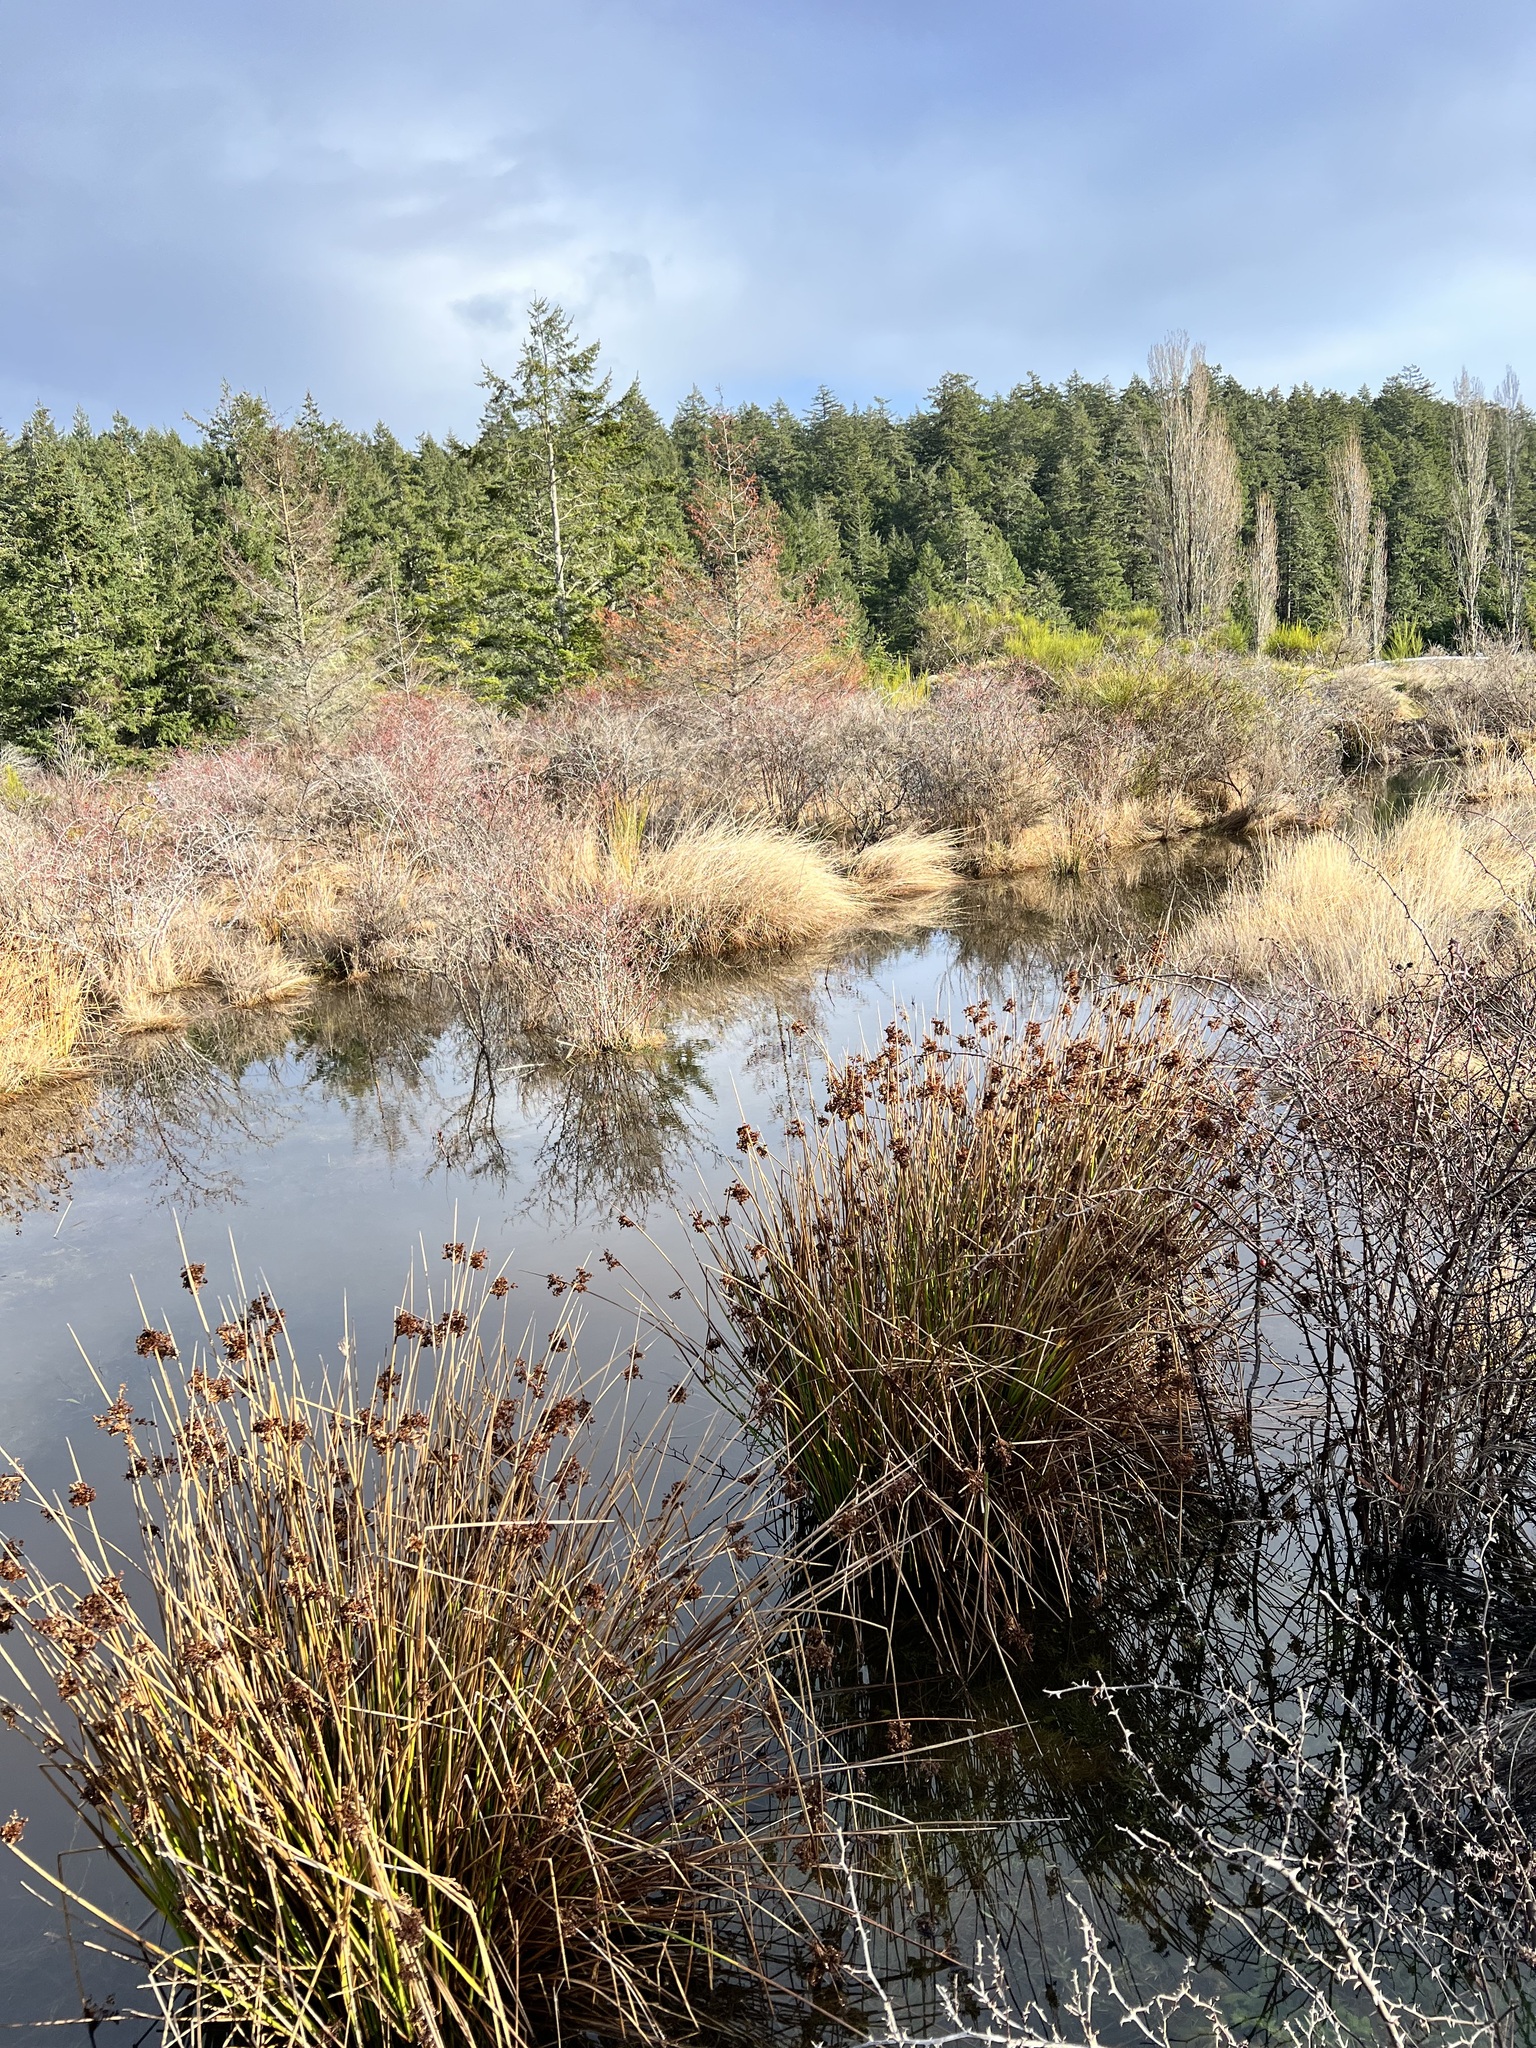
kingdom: Plantae
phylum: Tracheophyta
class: Liliopsida
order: Poales
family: Juncaceae
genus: Juncus
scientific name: Juncus effusus
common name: Soft rush
